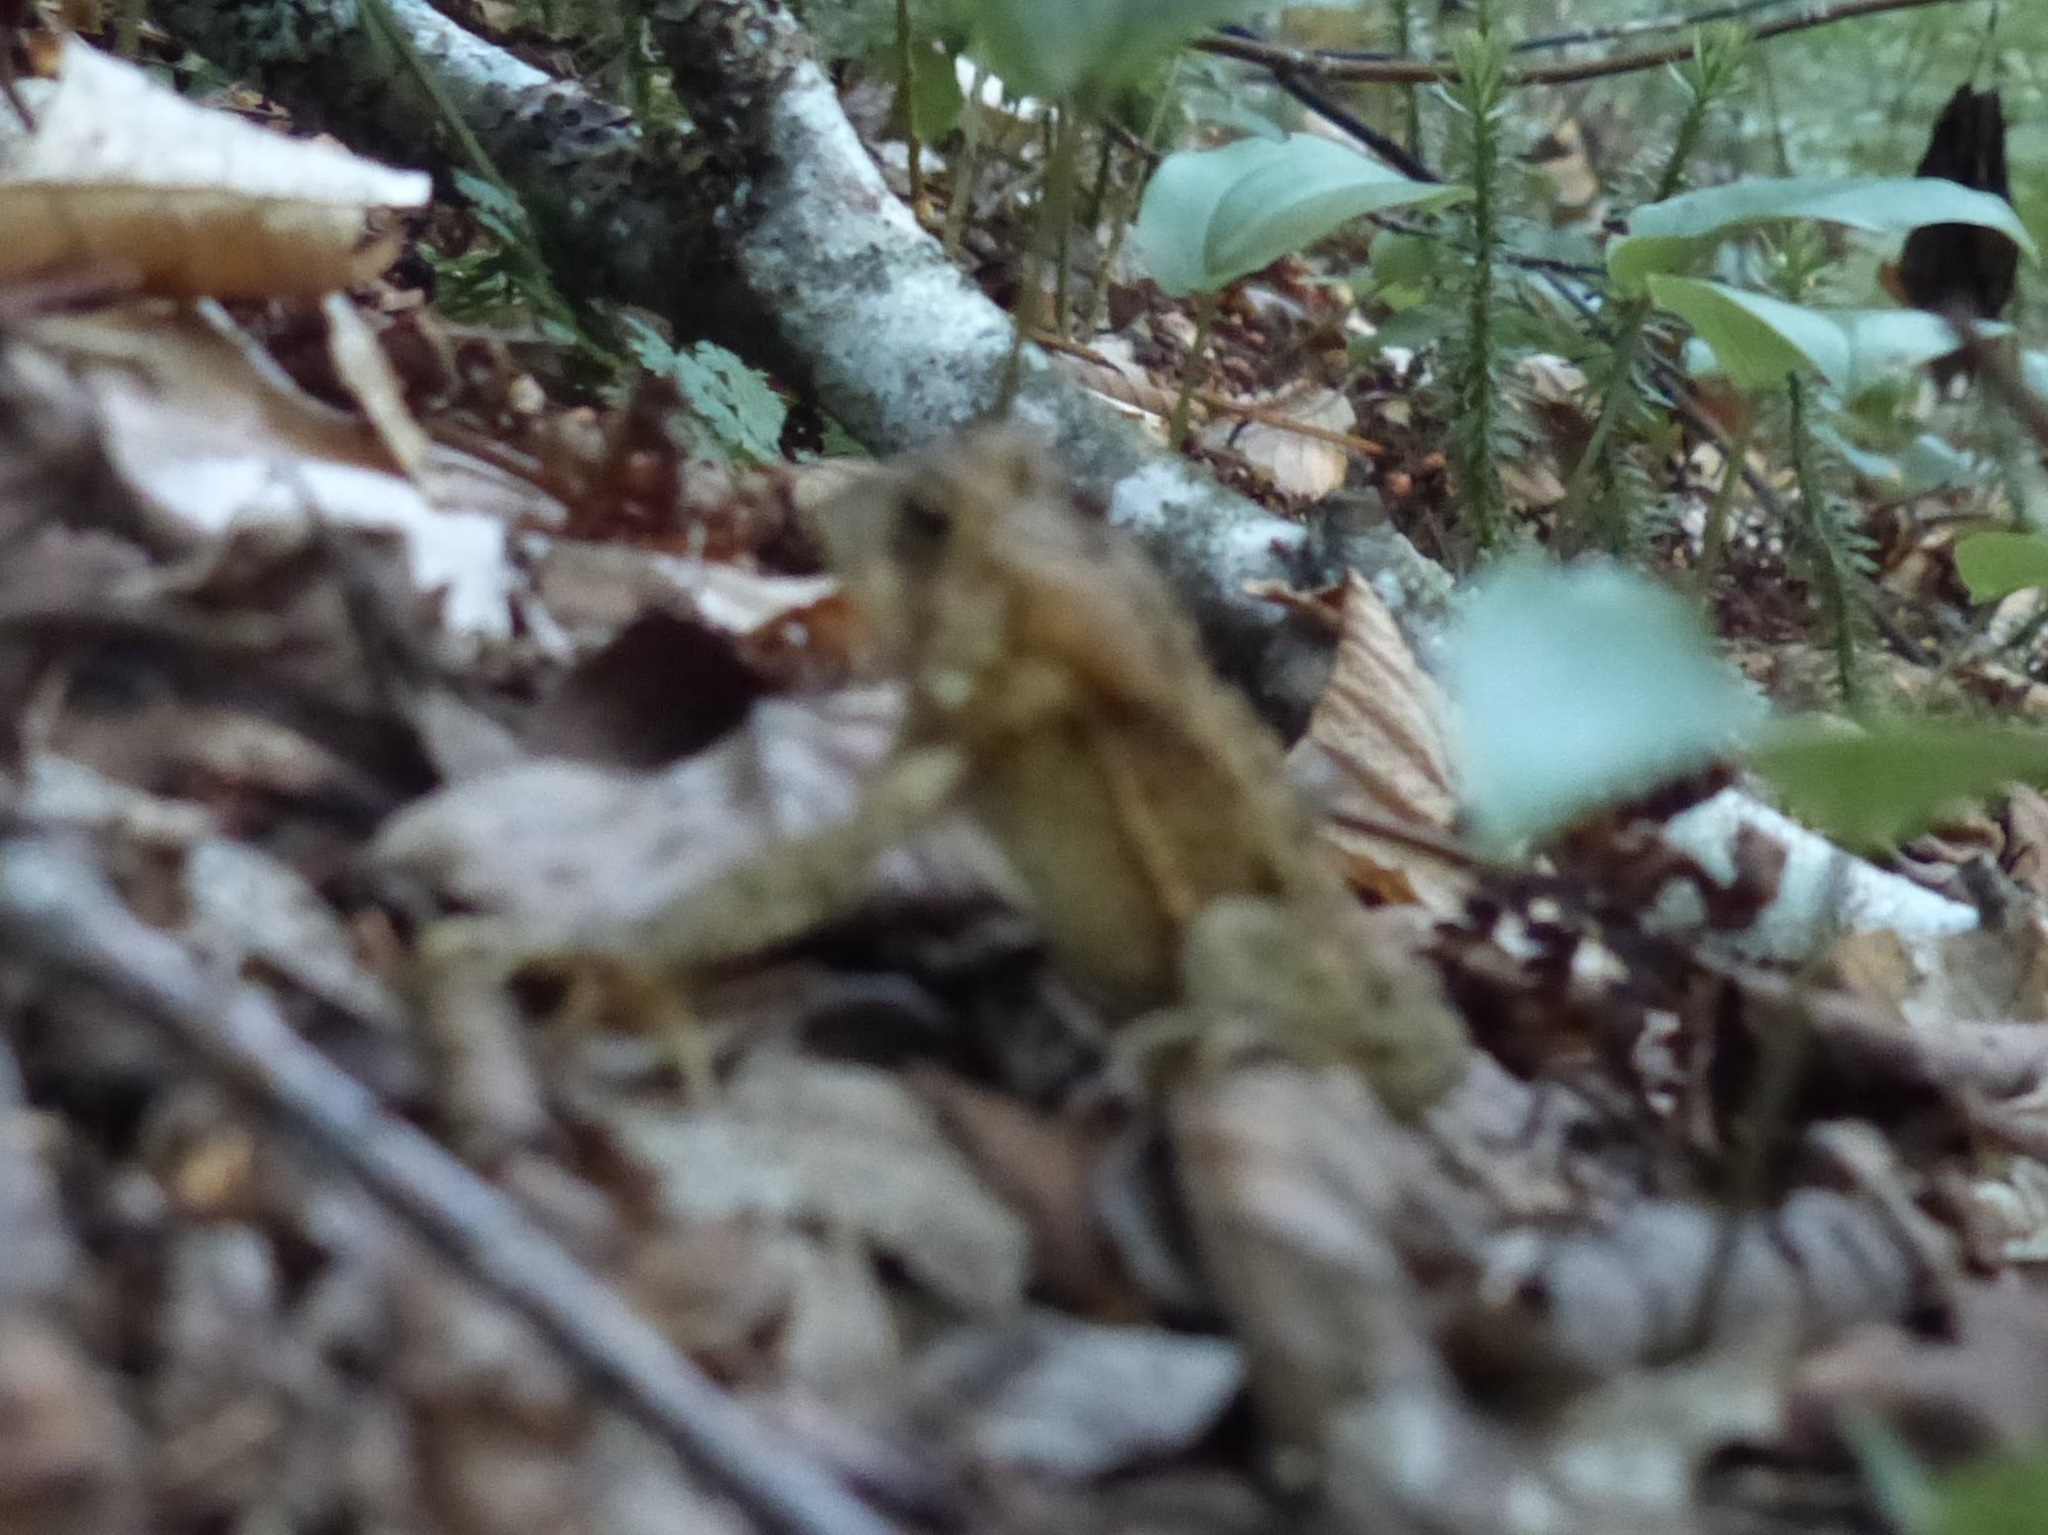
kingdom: Animalia
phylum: Chordata
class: Amphibia
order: Anura
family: Bufonidae
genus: Anaxyrus
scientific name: Anaxyrus americanus
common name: American toad
